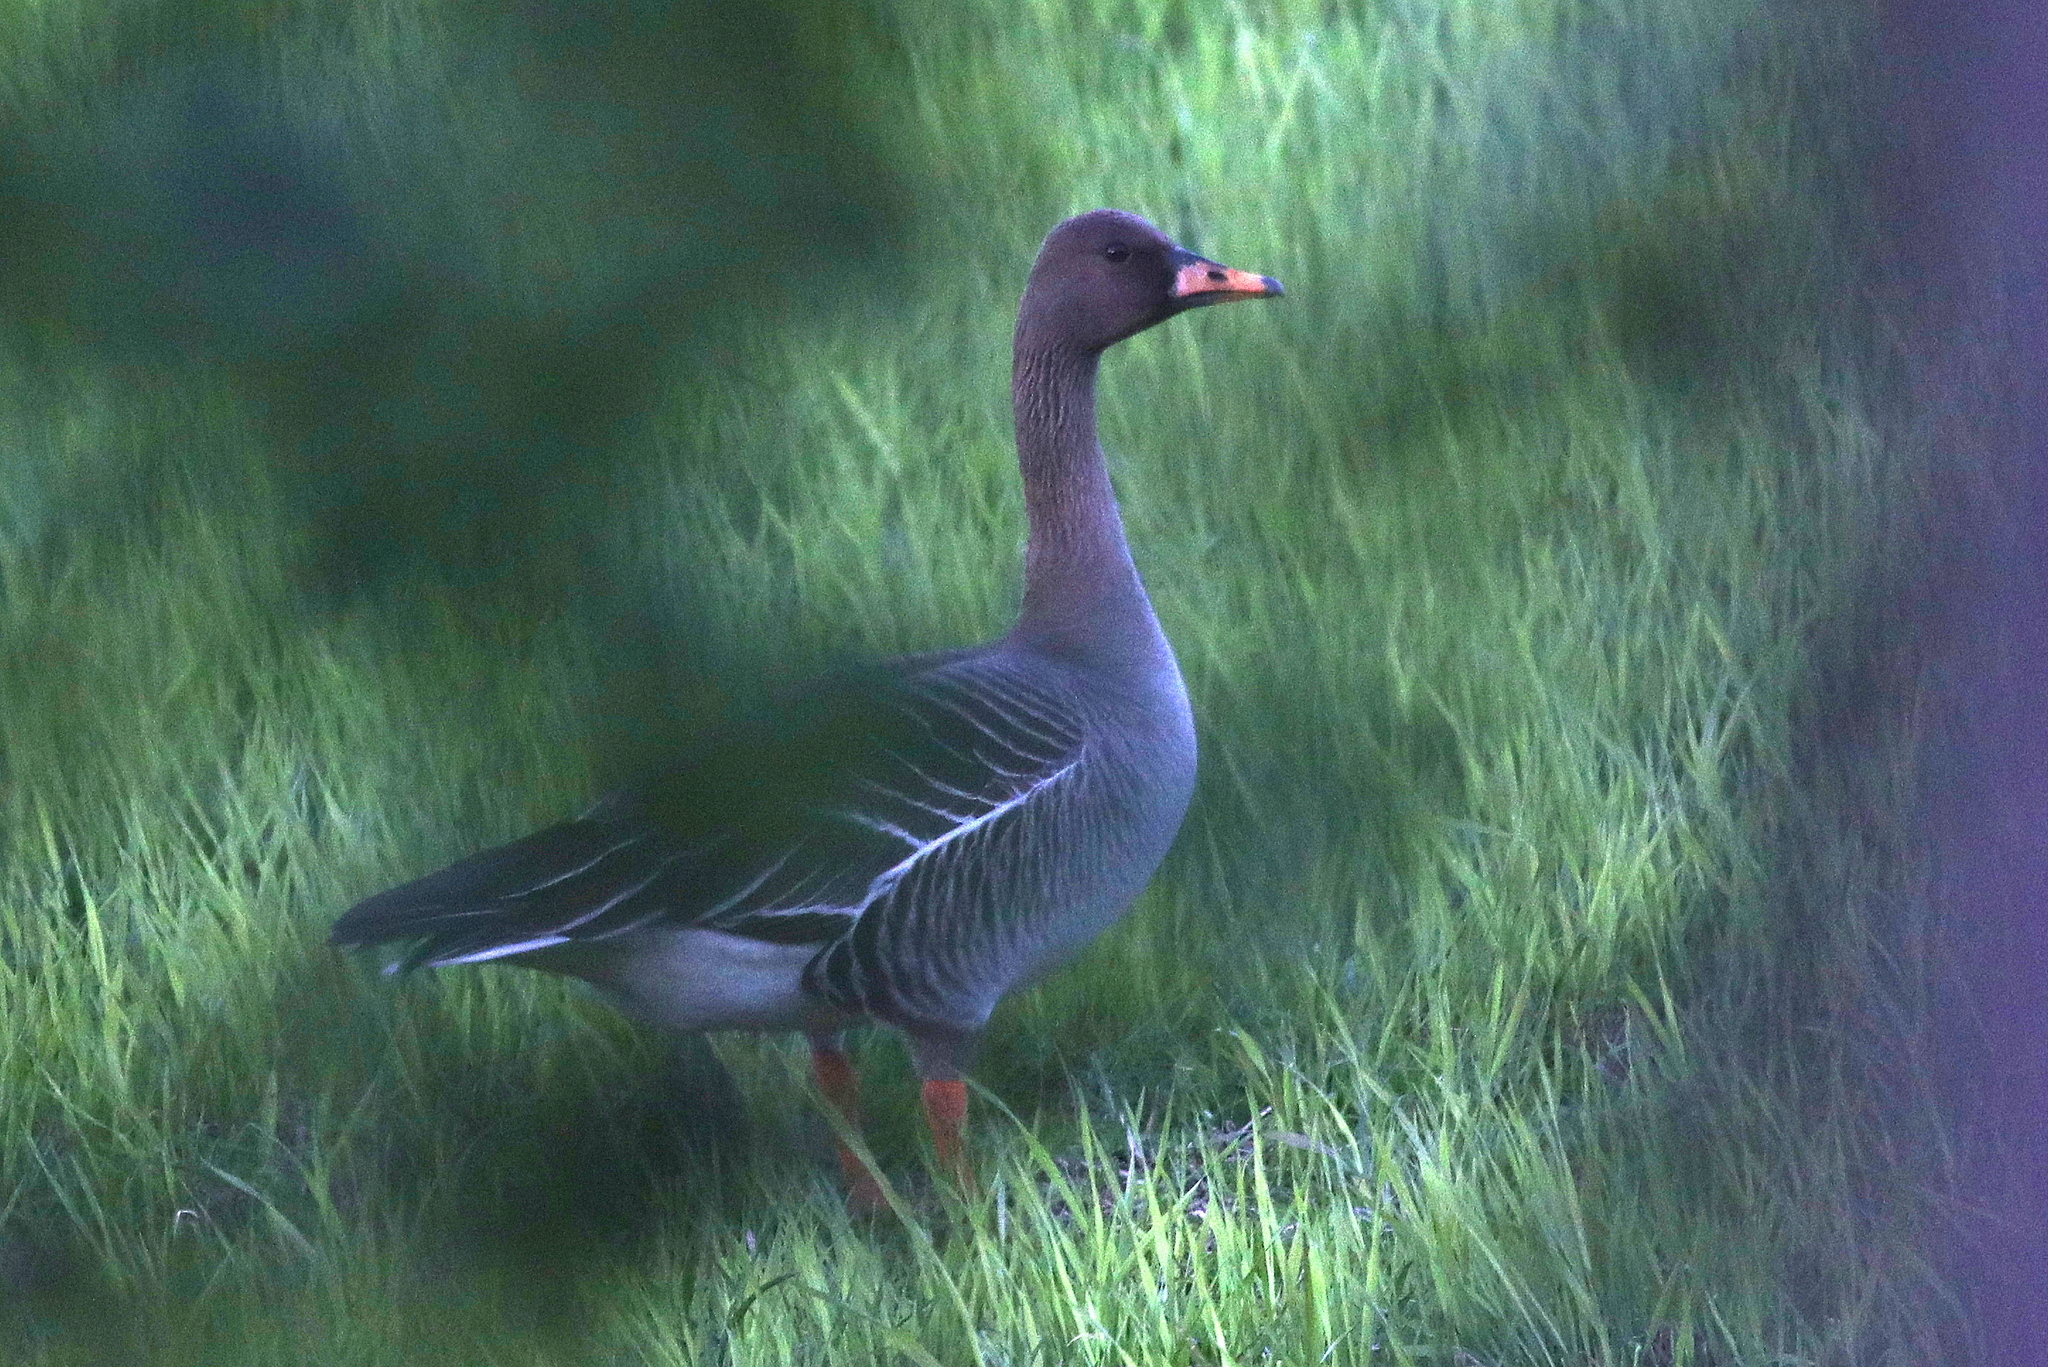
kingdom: Animalia
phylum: Chordata
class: Aves
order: Anseriformes
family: Anatidae
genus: Anser
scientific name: Anser fabalis
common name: Bean goose
